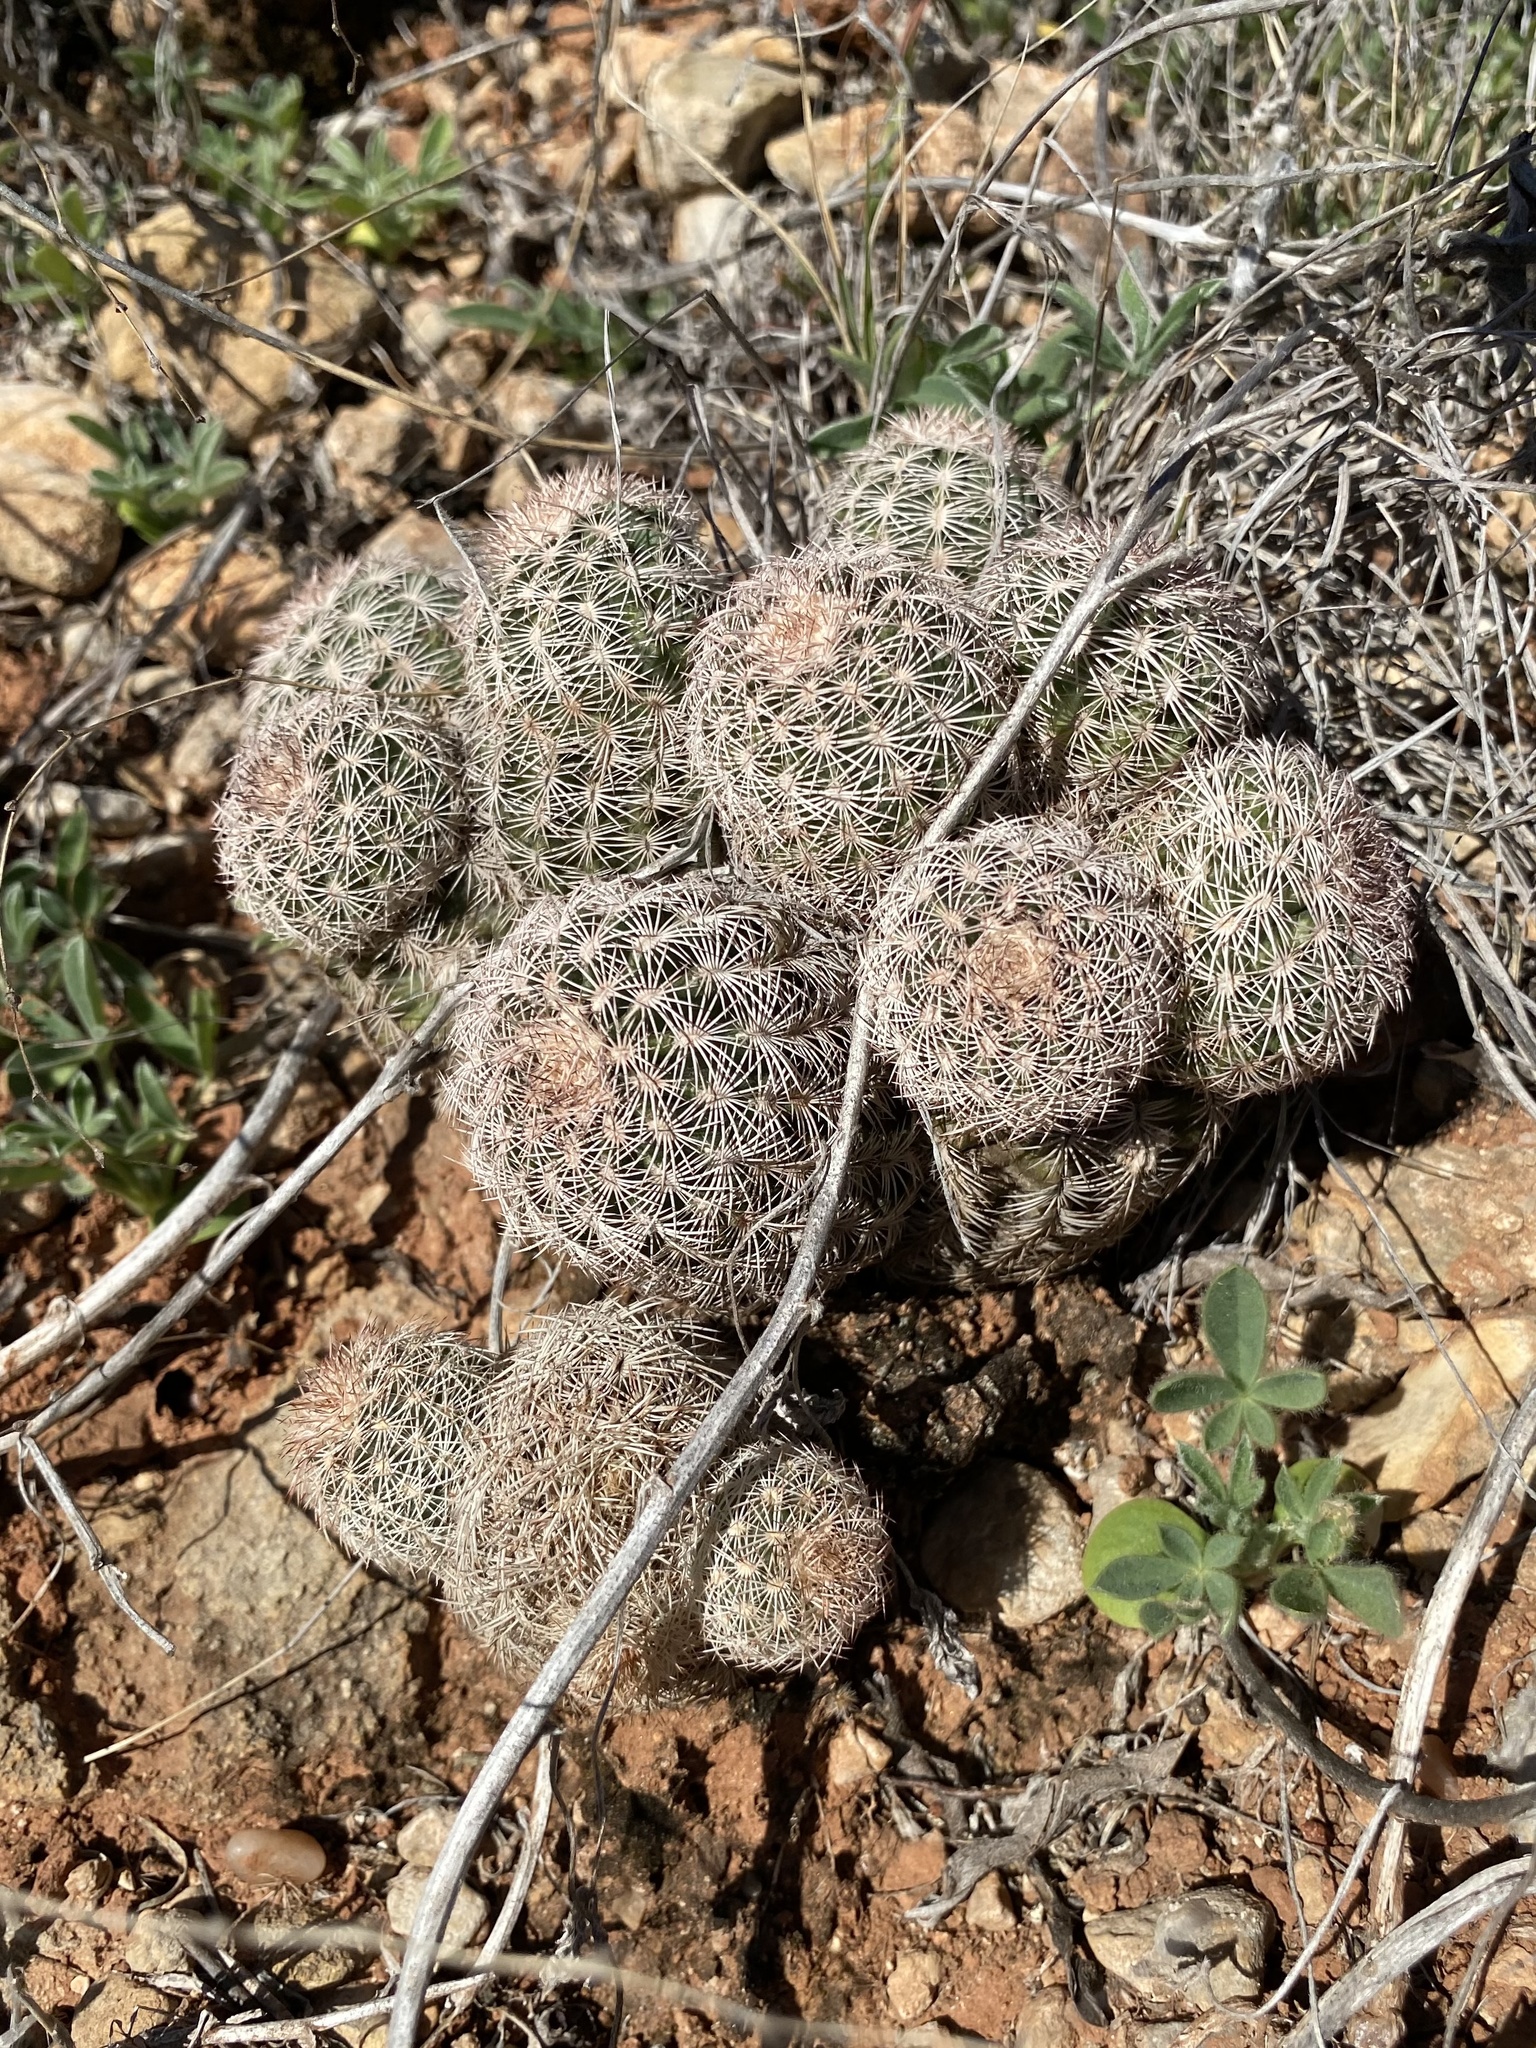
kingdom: Plantae
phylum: Tracheophyta
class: Magnoliopsida
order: Caryophyllales
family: Cactaceae
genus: Echinocereus
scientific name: Echinocereus reichenbachii
